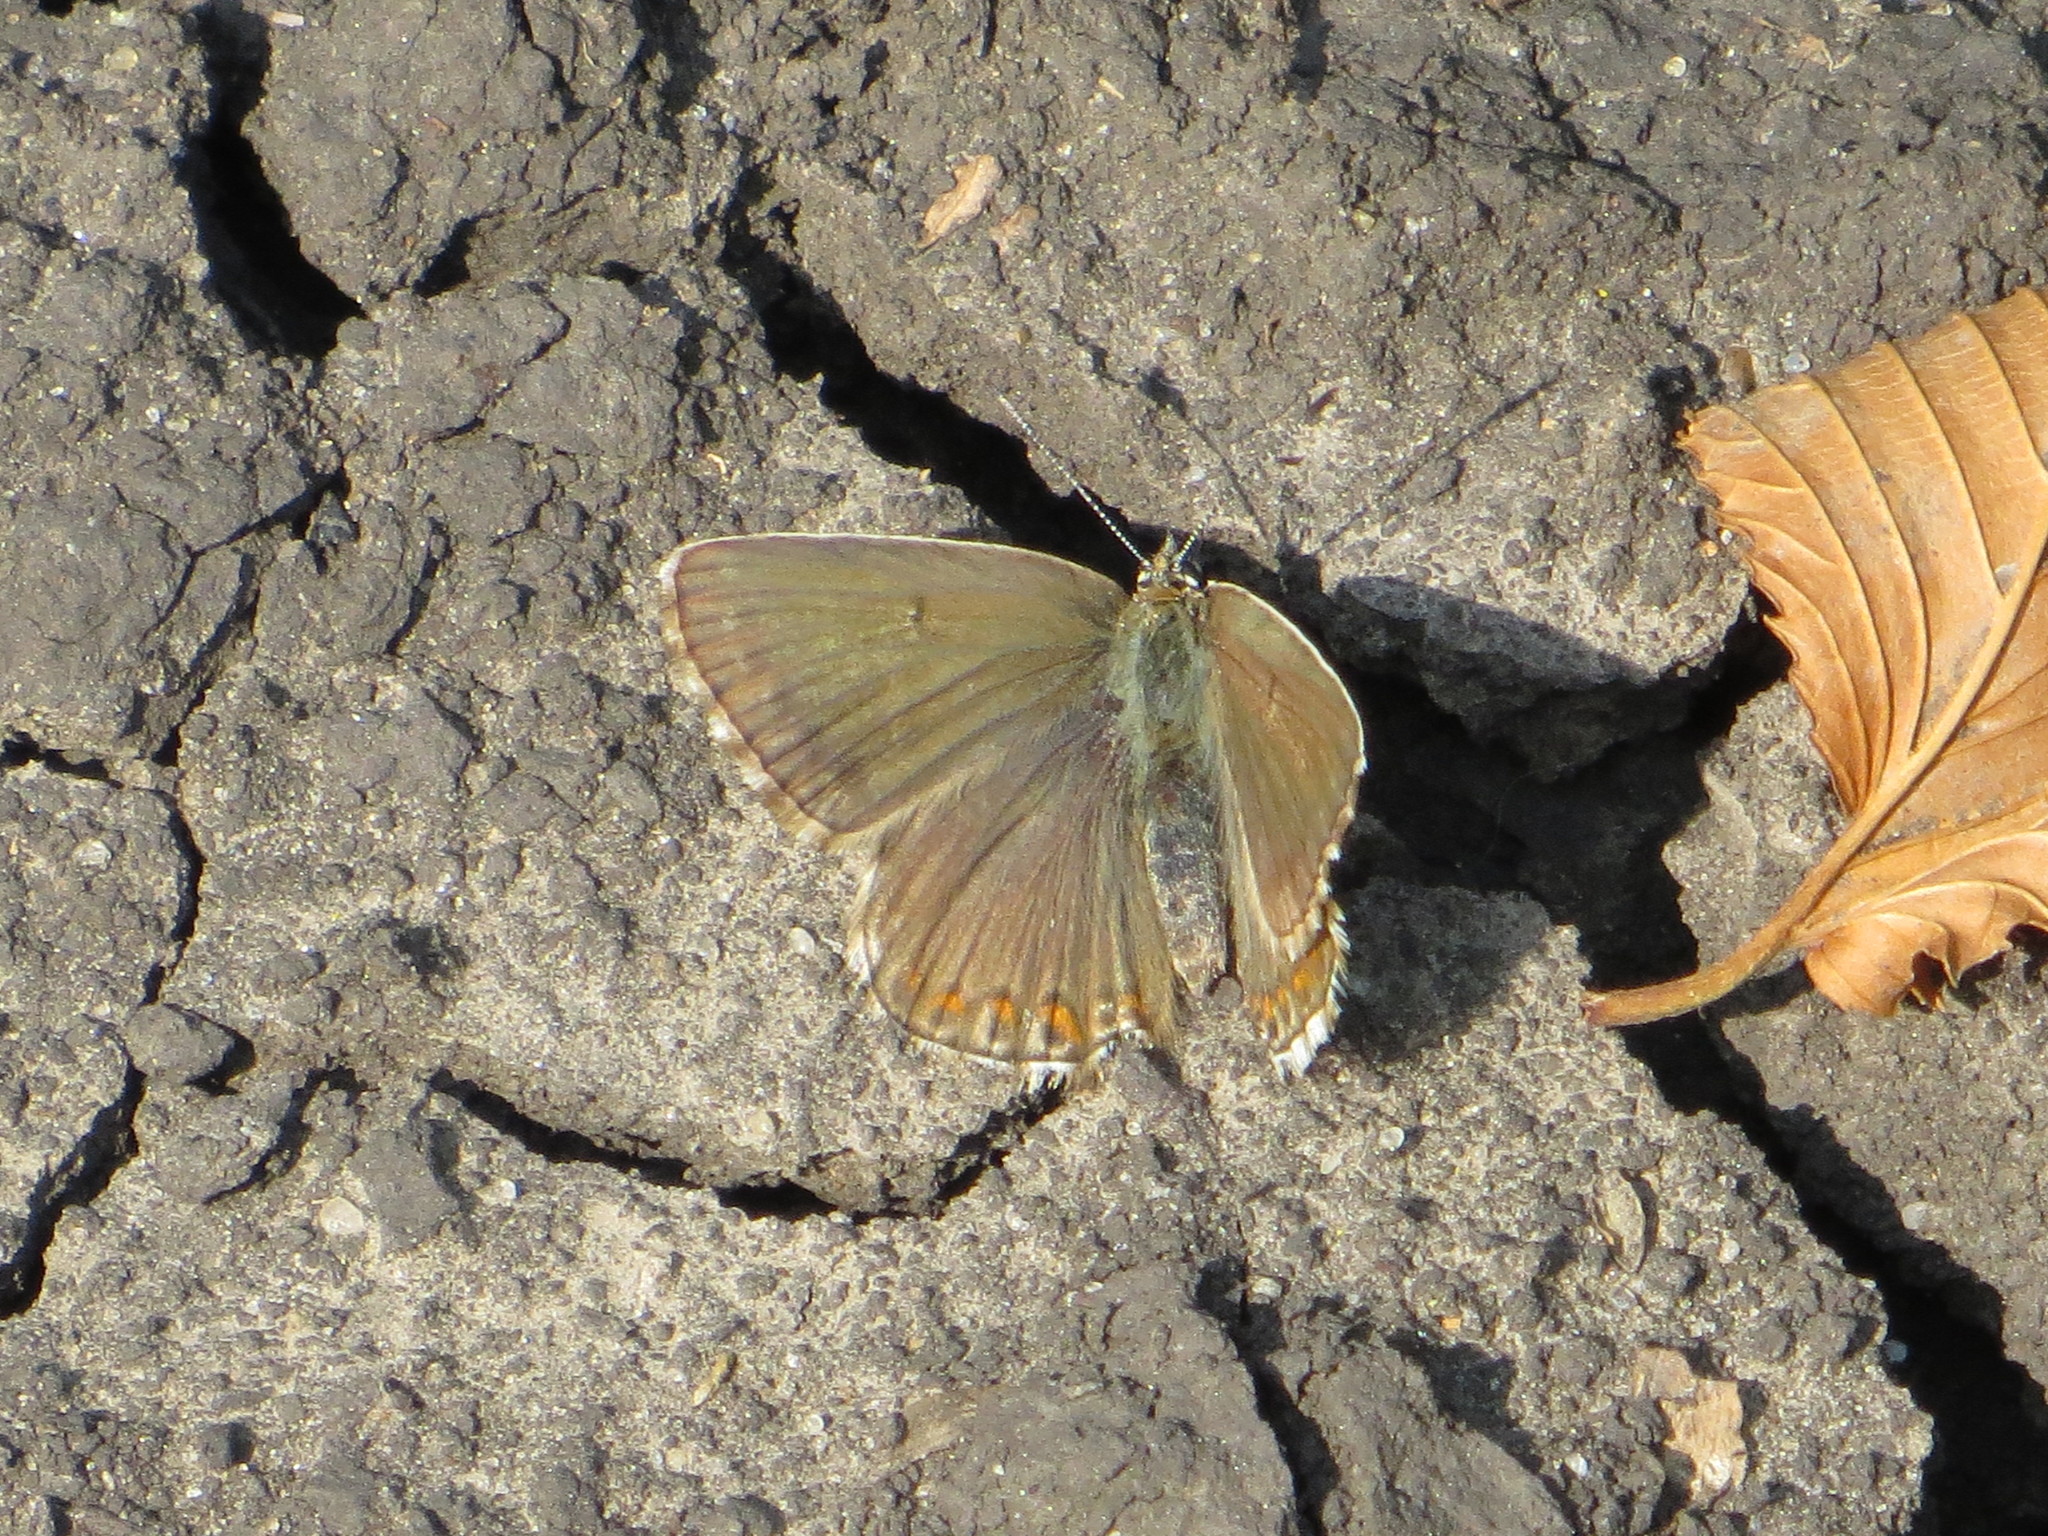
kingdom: Animalia
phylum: Arthropoda
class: Insecta
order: Lepidoptera
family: Lycaenidae
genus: Lysandra
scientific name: Lysandra coridon
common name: Chalkhill blue
